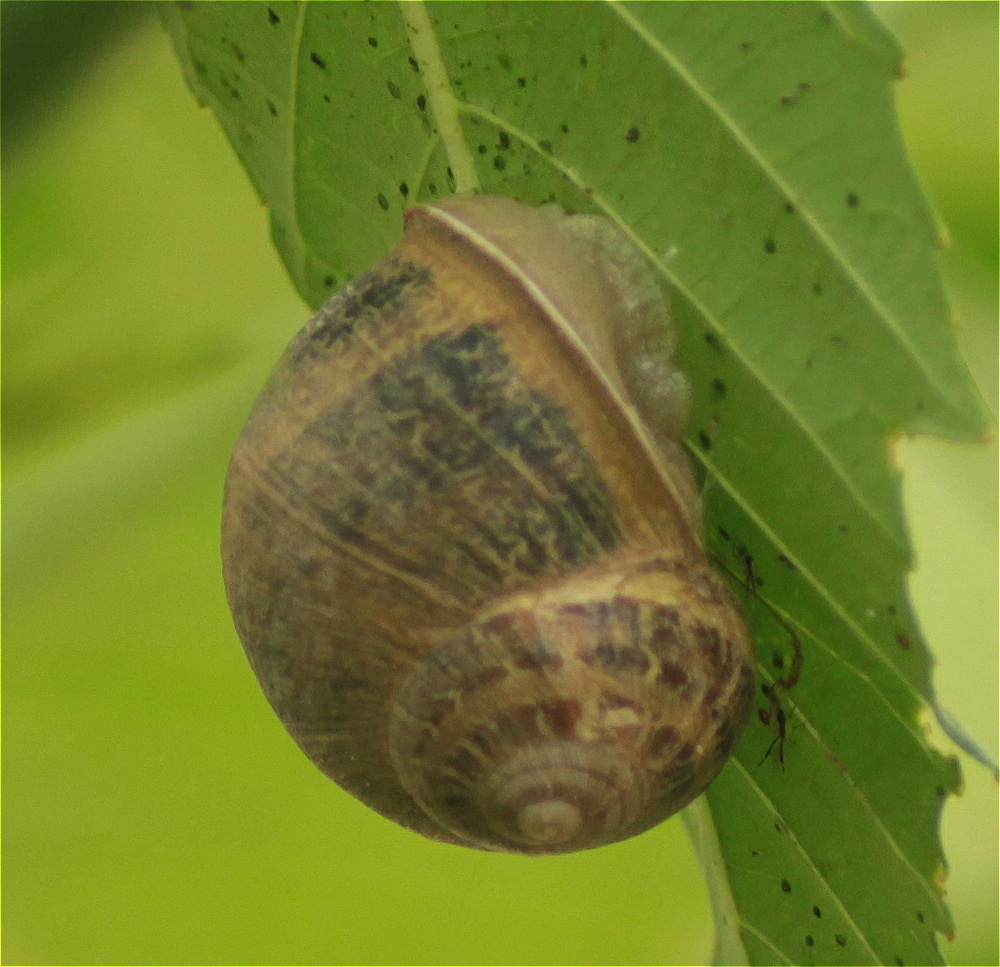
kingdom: Animalia
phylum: Mollusca
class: Gastropoda
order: Stylommatophora
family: Helicidae
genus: Cornu
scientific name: Cornu aspersum
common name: Brown garden snail
